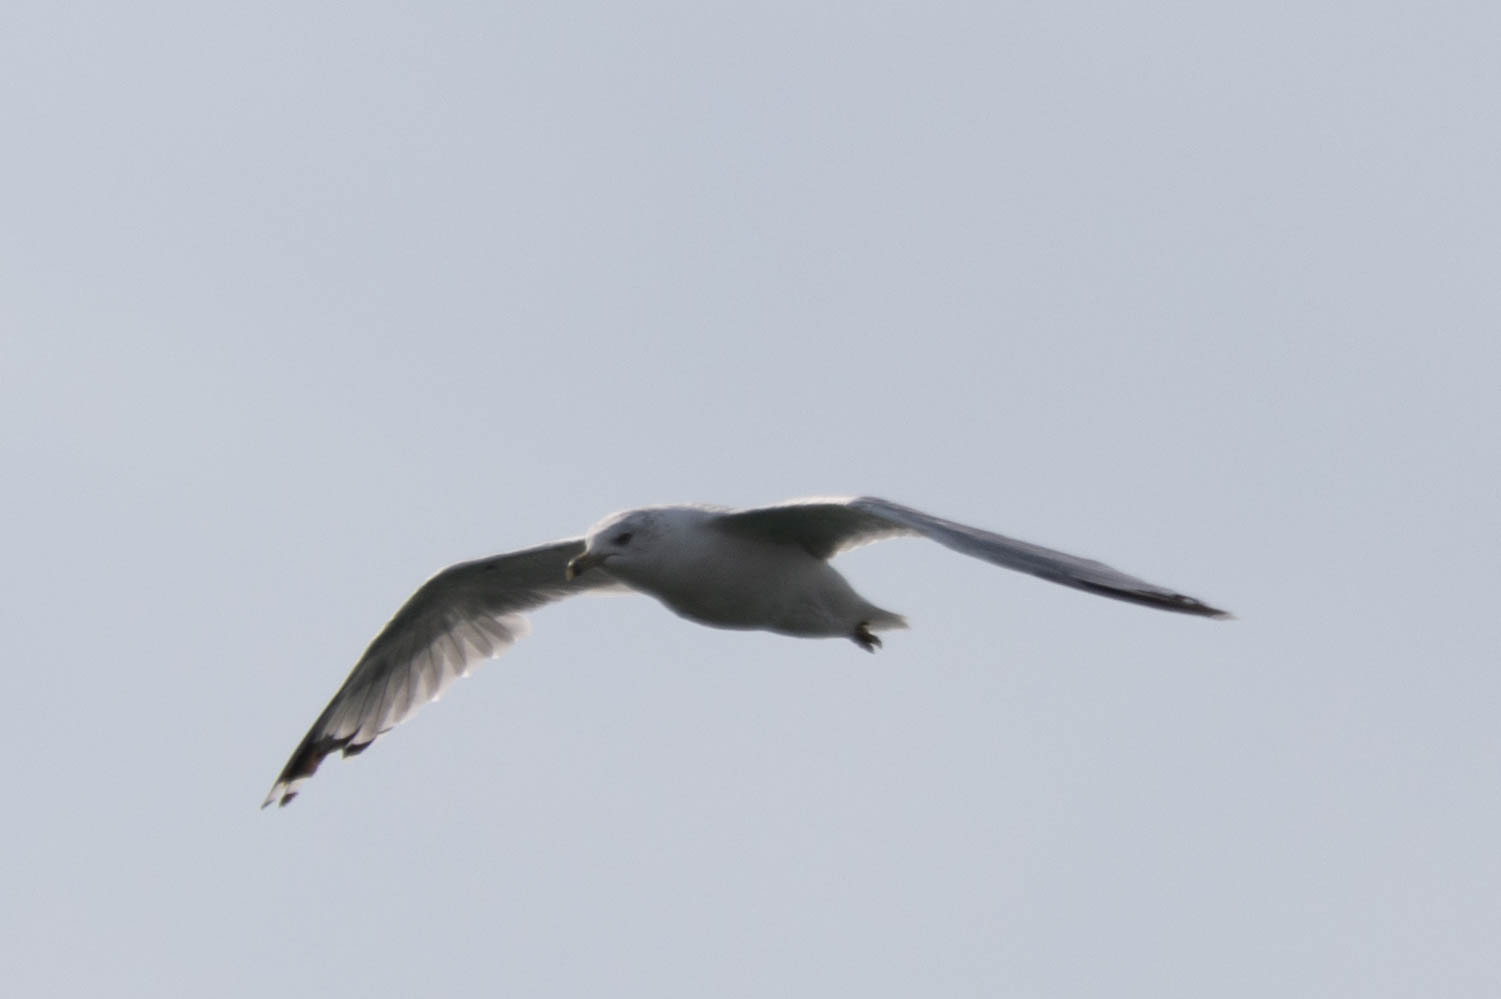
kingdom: Animalia
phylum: Chordata
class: Aves
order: Charadriiformes
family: Laridae
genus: Larus
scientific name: Larus delawarensis
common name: Ring-billed gull
